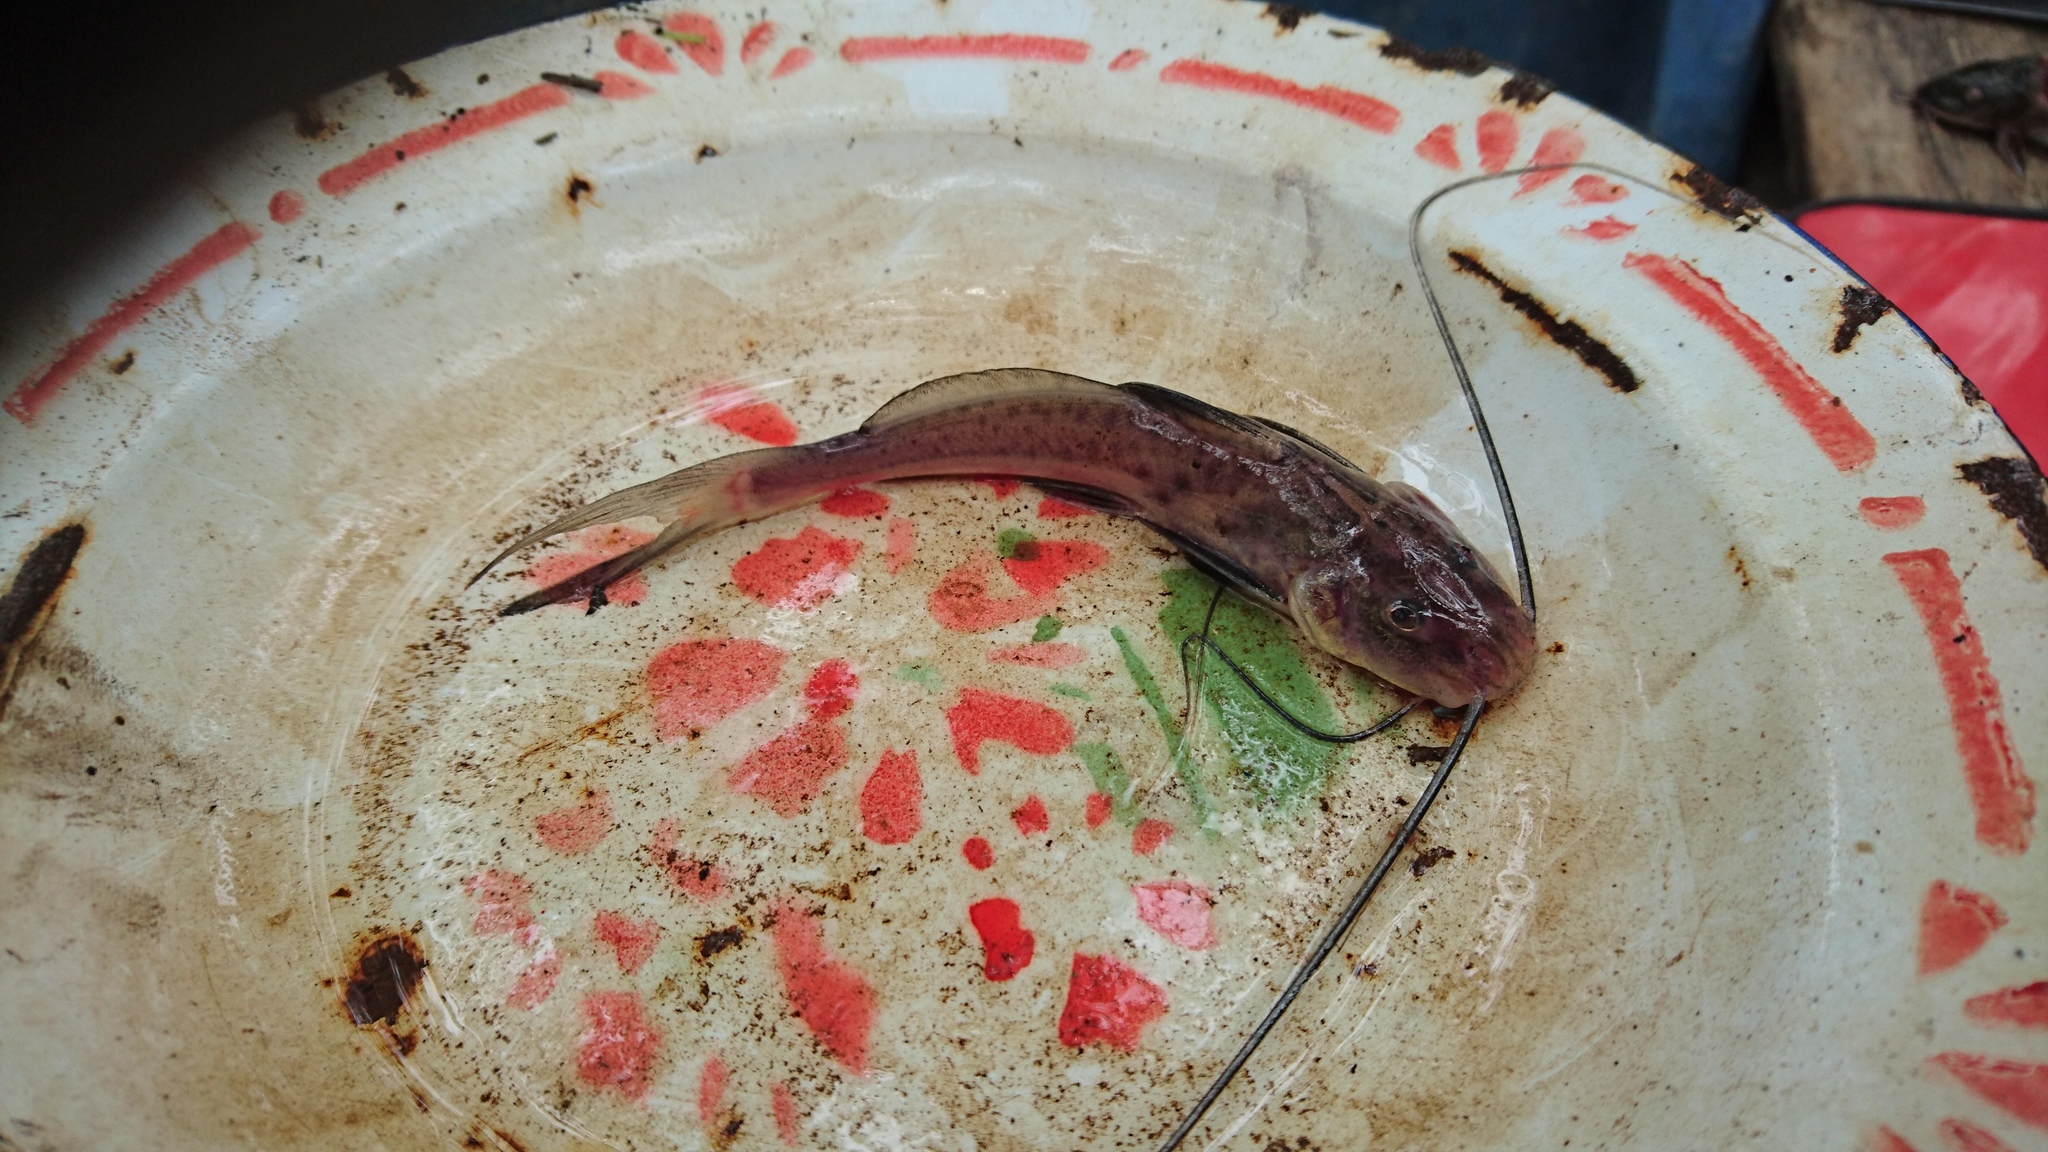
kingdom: Animalia
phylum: Chordata
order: Siluriformes
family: Pimelodidae
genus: Calophysus
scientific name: Calophysus macropterus
